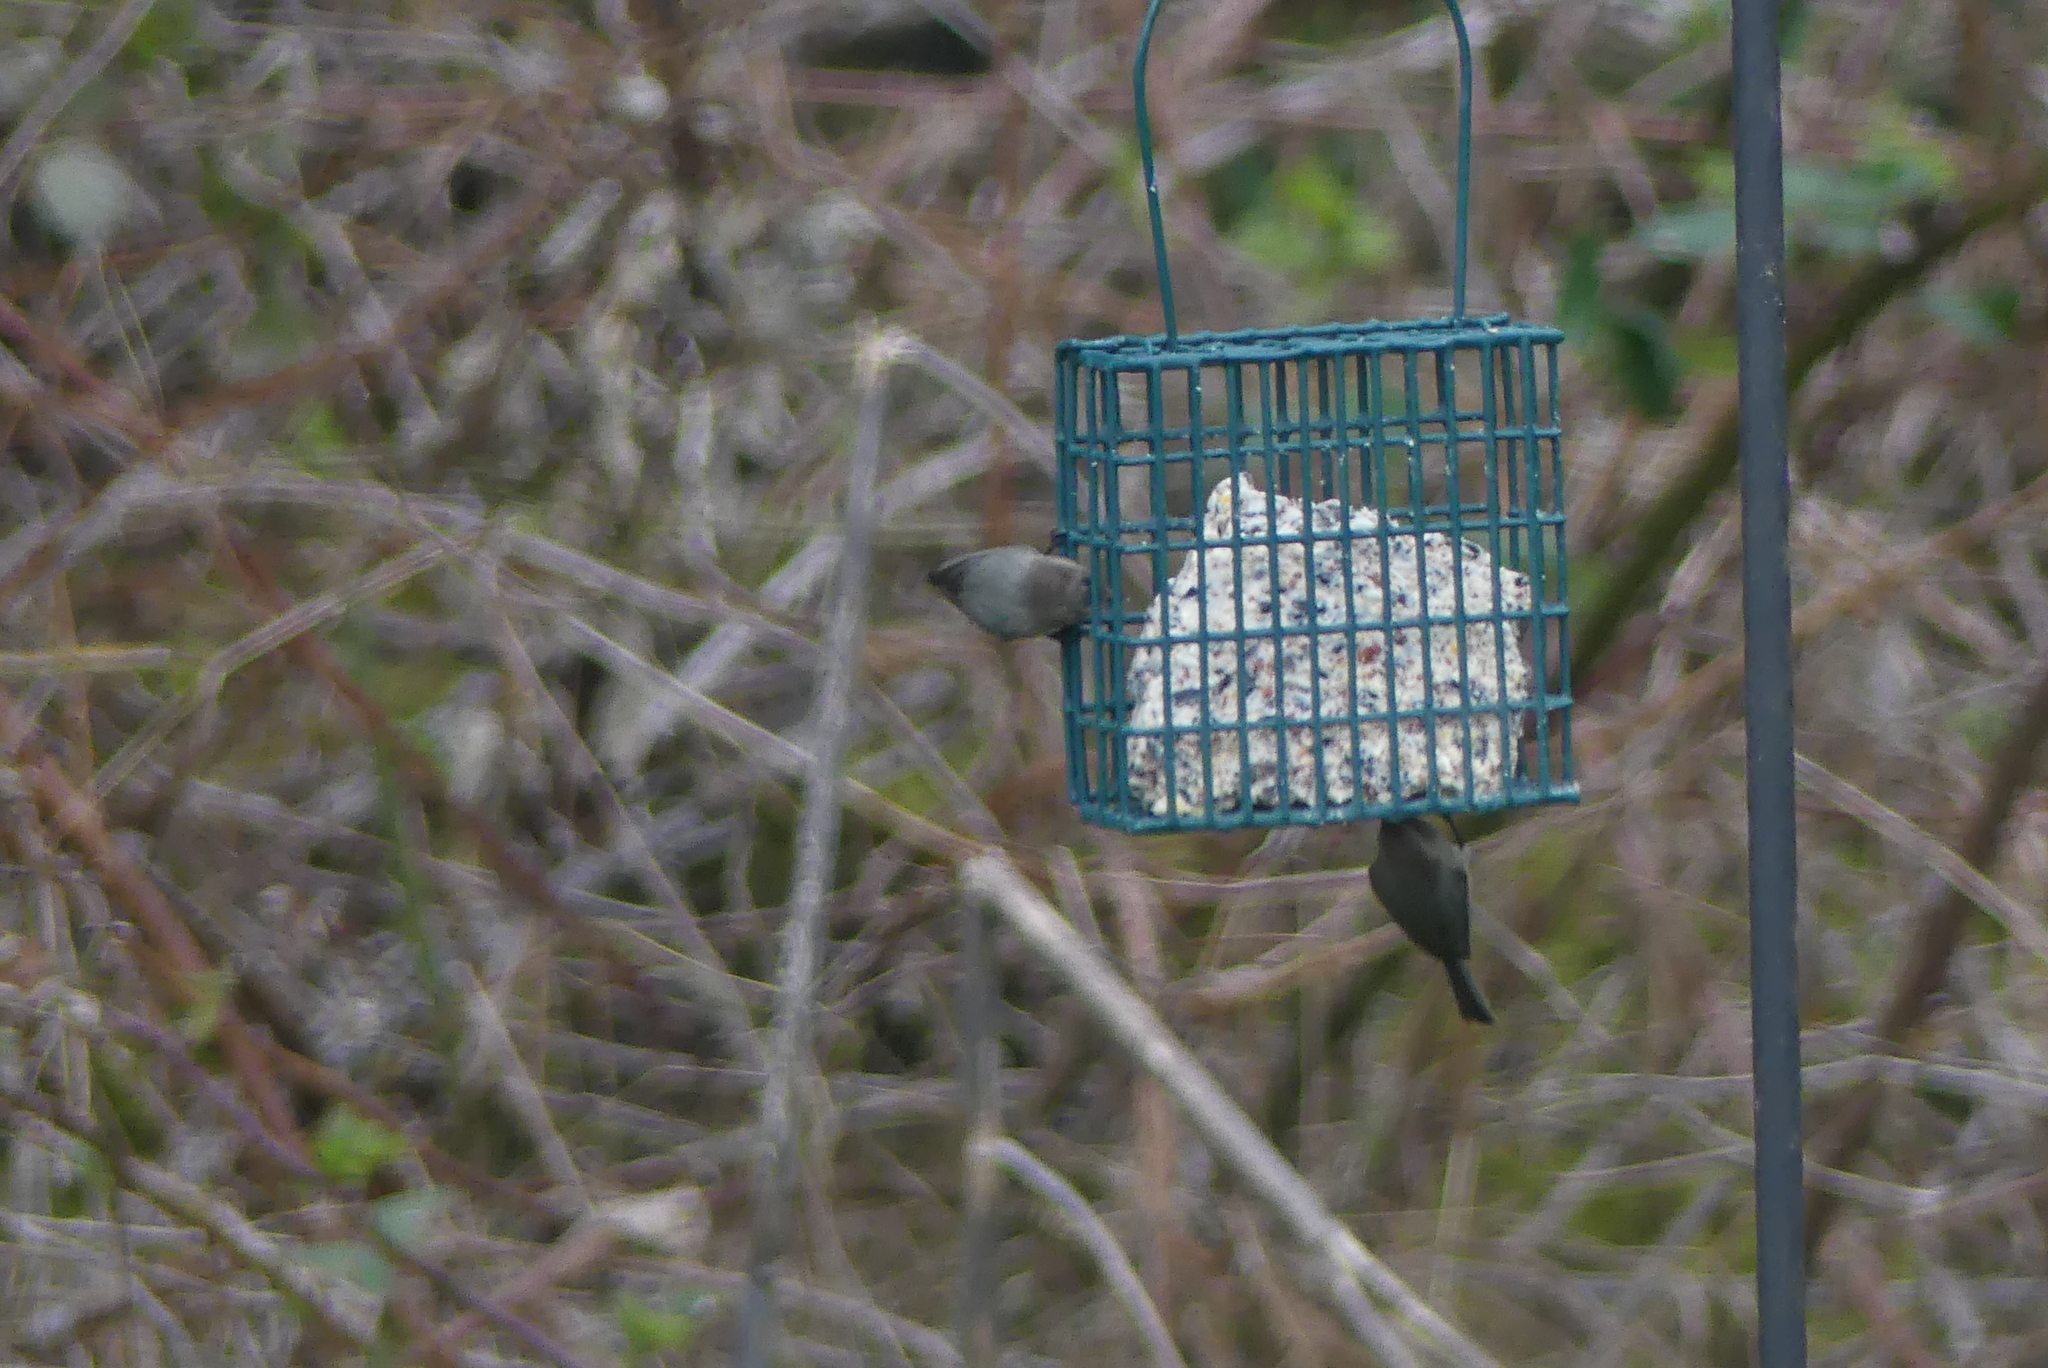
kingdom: Animalia
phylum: Chordata
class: Aves
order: Passeriformes
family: Aegithalidae
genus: Psaltriparus
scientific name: Psaltriparus minimus
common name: American bushtit
